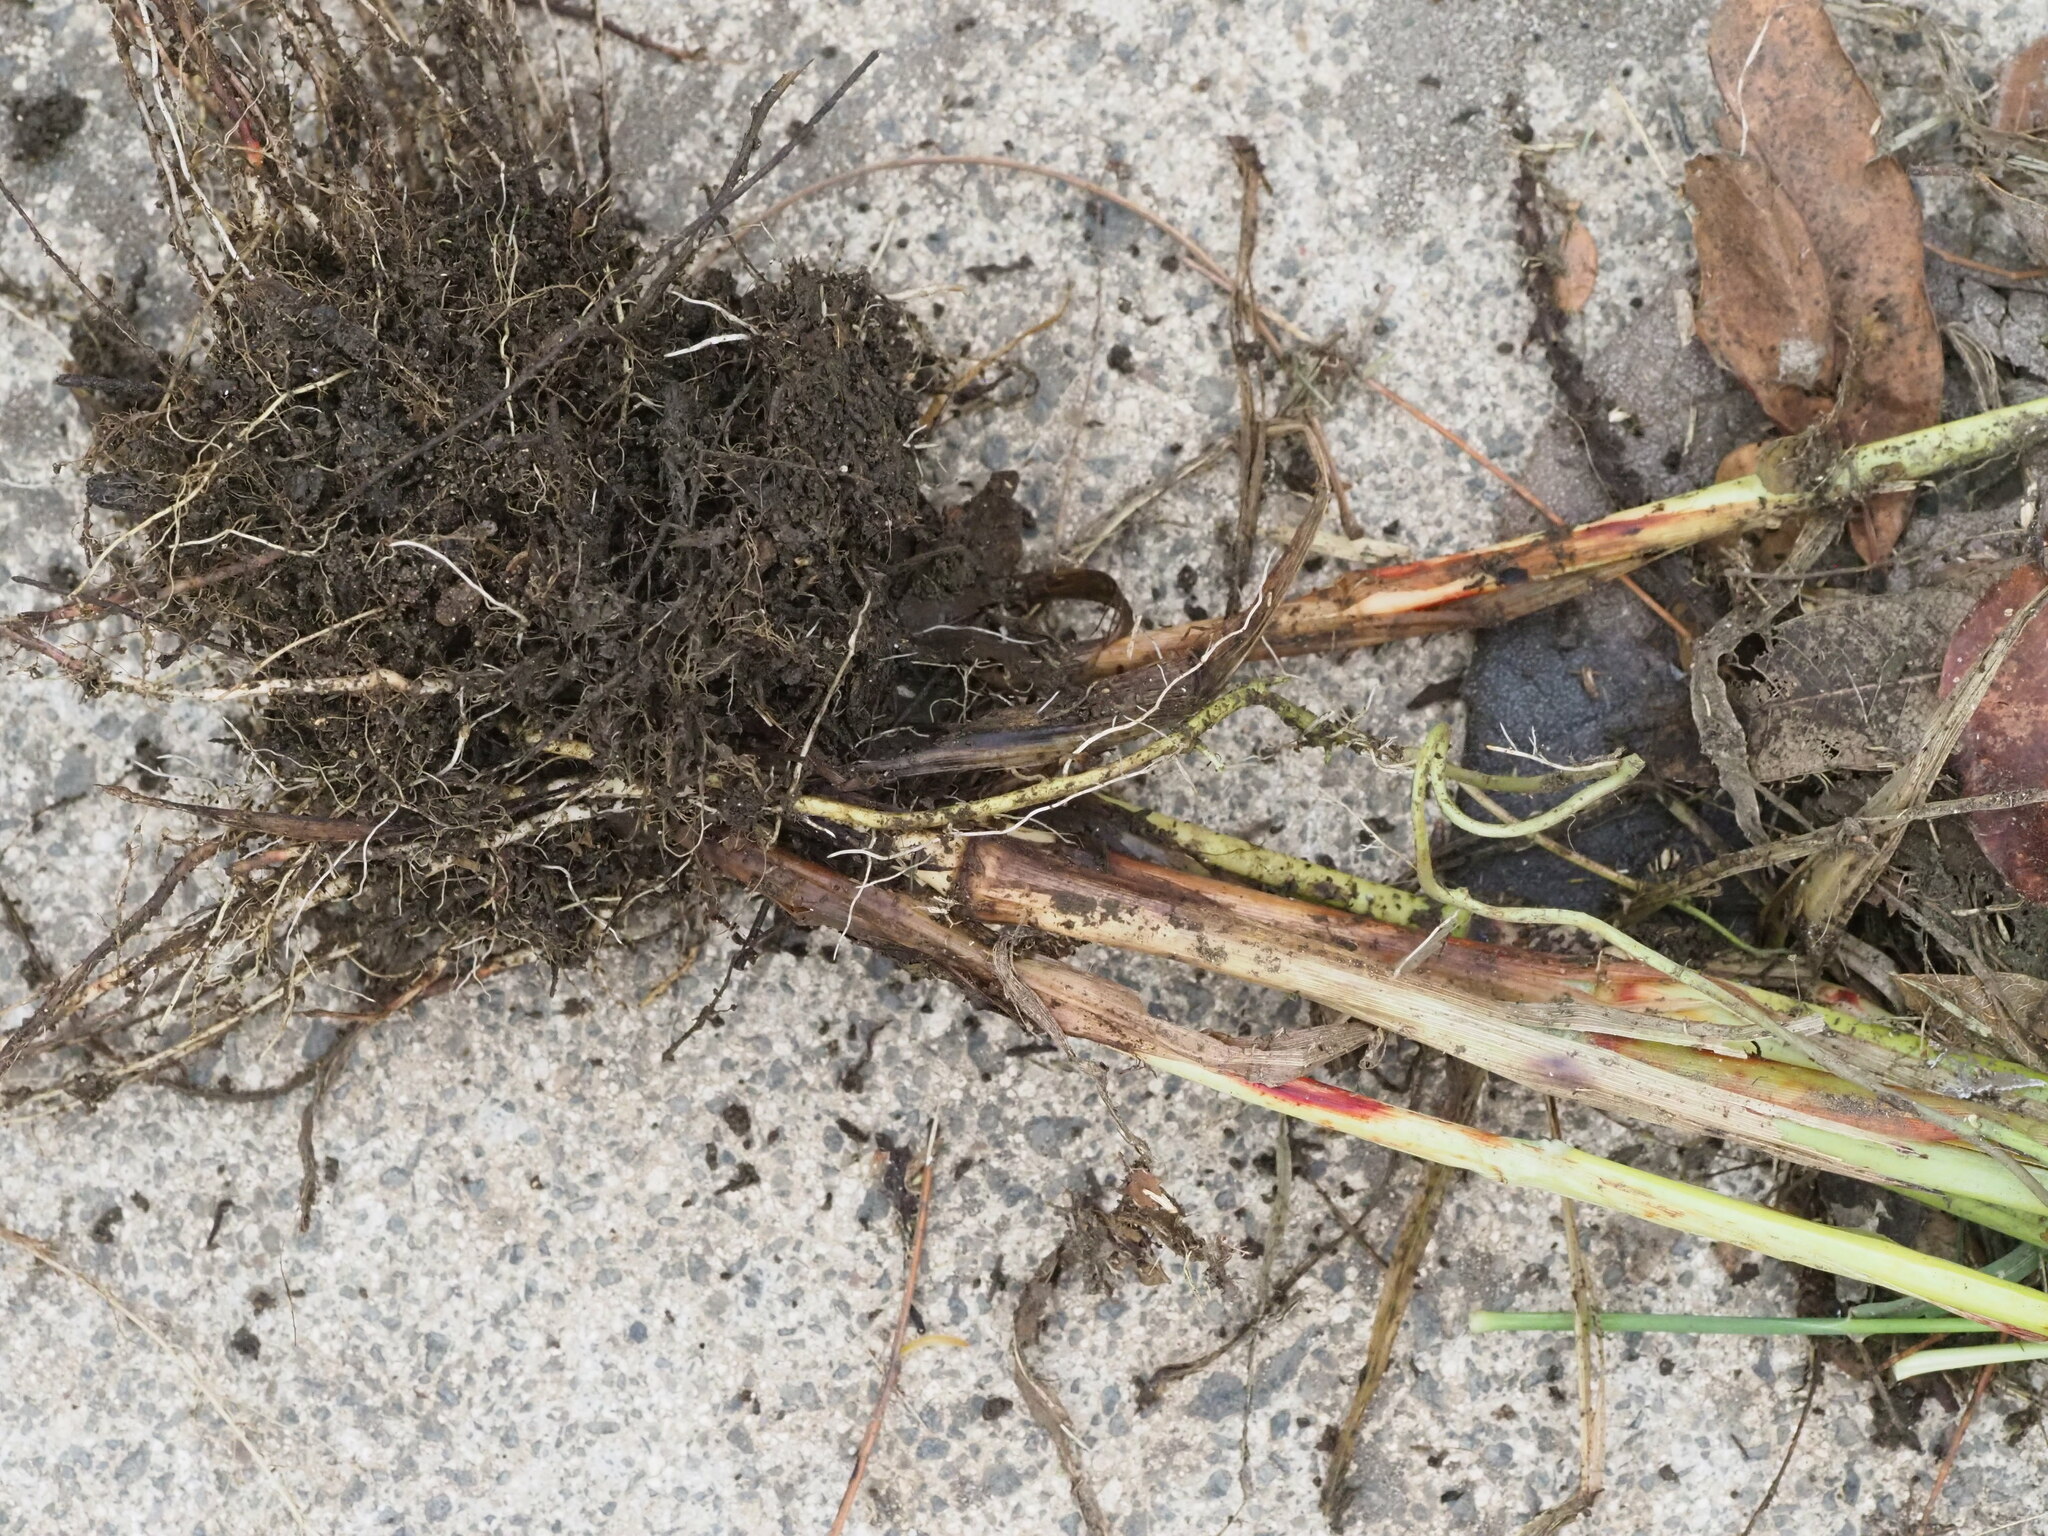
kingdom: Plantae
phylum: Tracheophyta
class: Liliopsida
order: Poales
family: Poaceae
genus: Sorghum
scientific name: Sorghum drummondii
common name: Sudangrass
